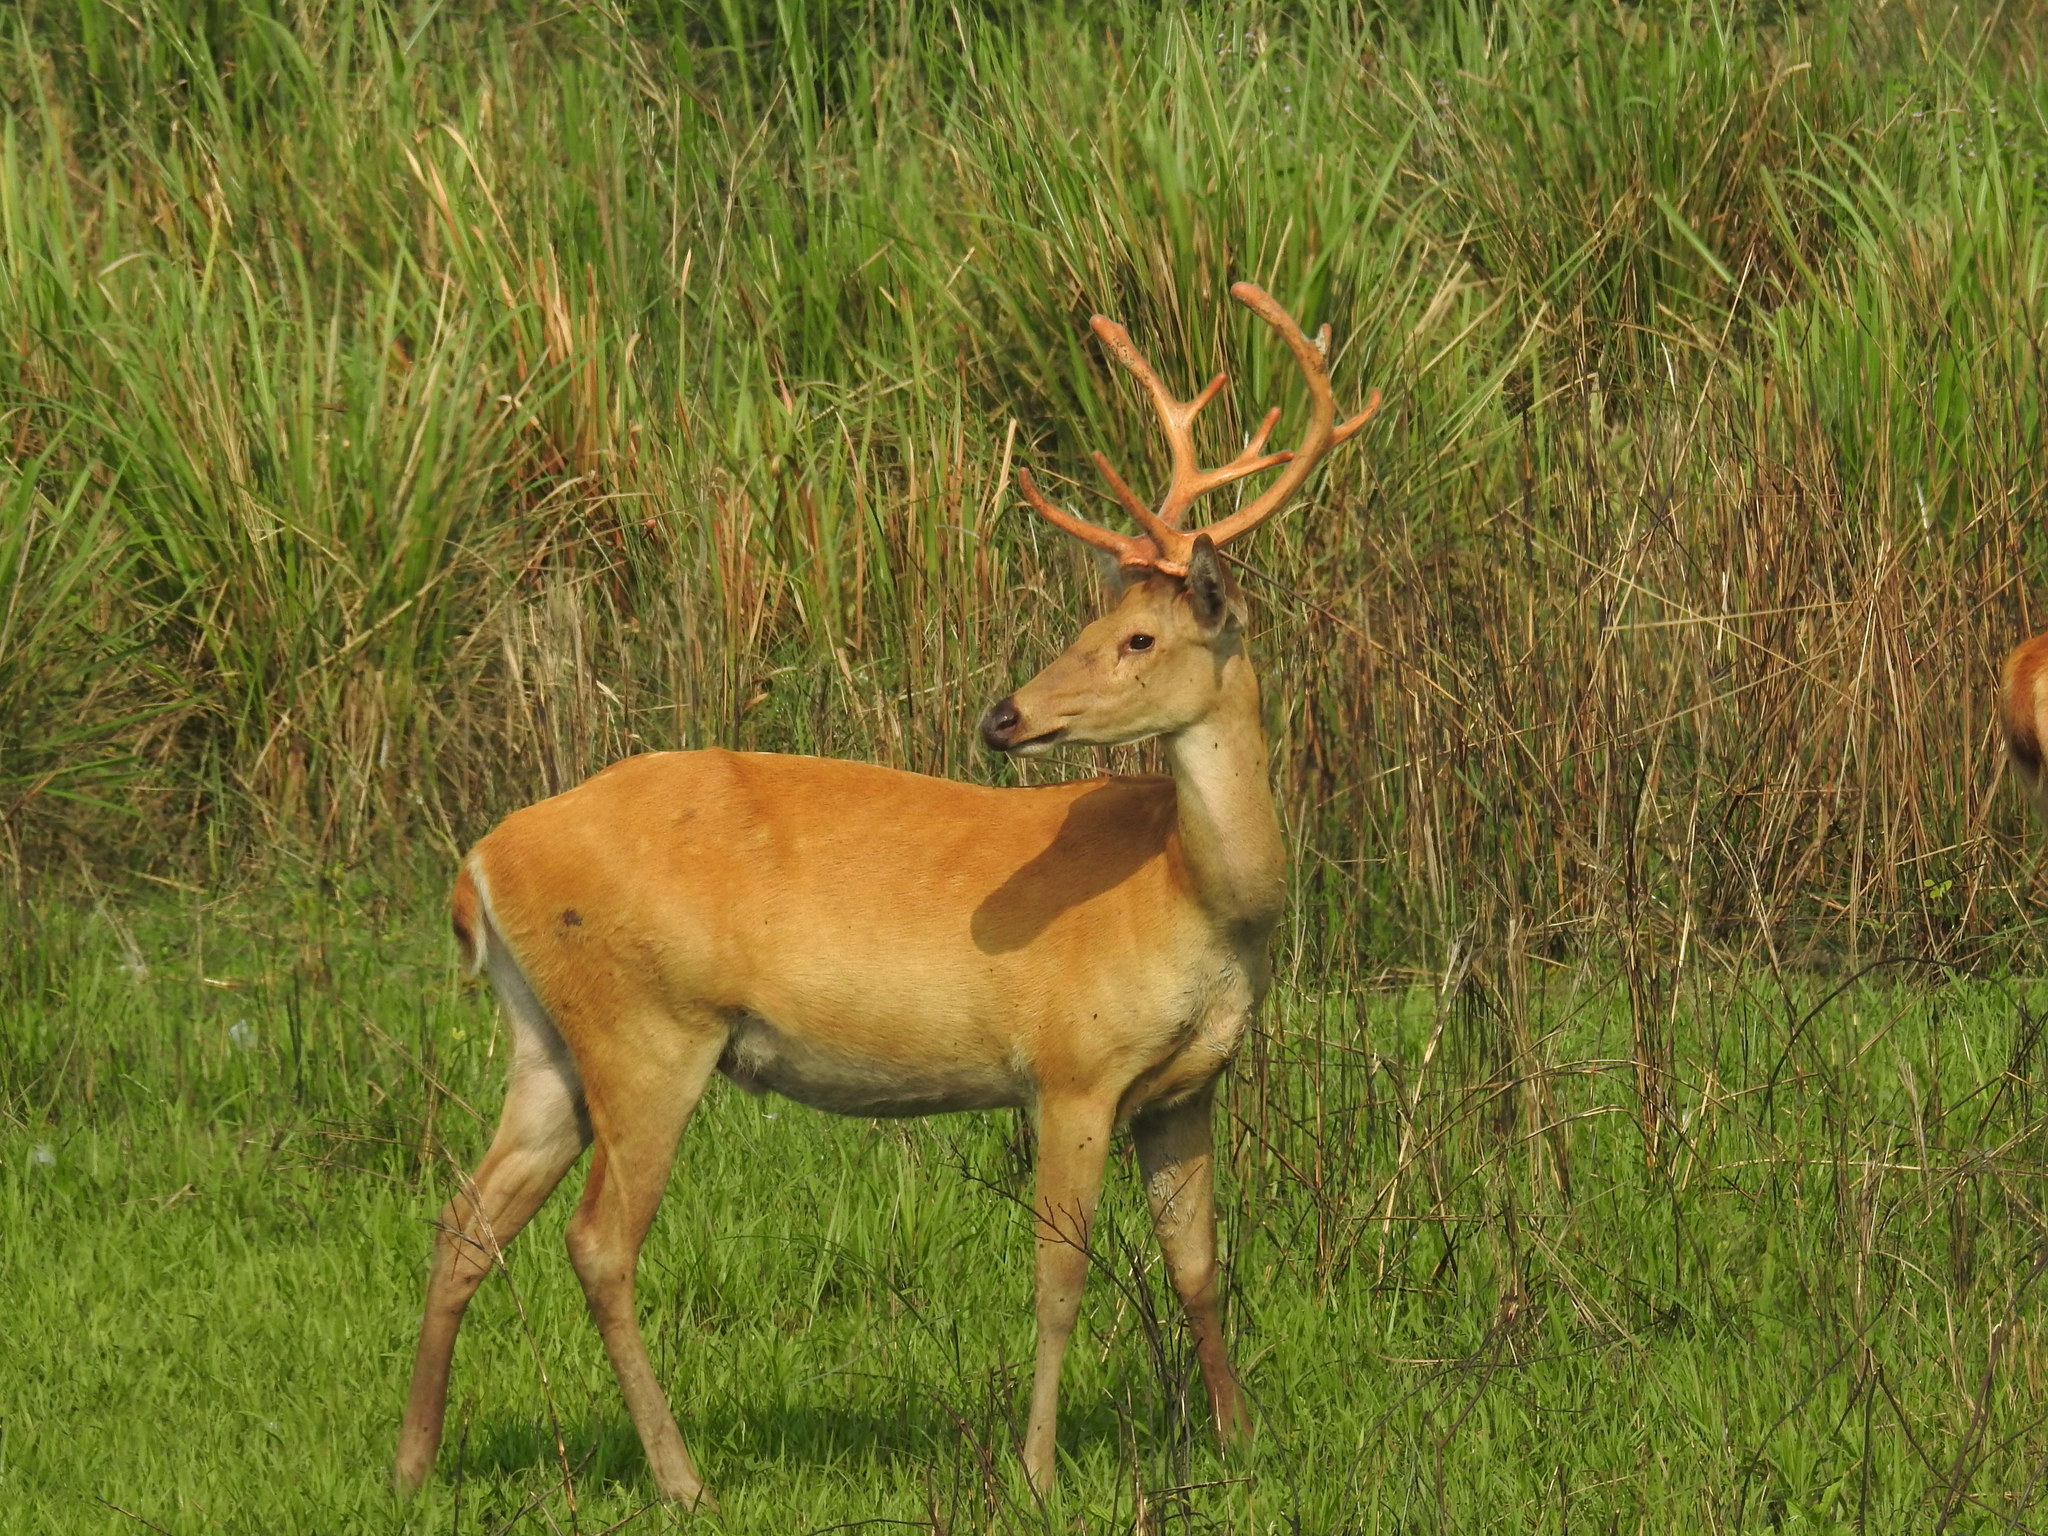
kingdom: Animalia
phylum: Chordata
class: Mammalia
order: Artiodactyla
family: Cervidae
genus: Rucervus
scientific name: Rucervus duvaucelii
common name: Barasingha
